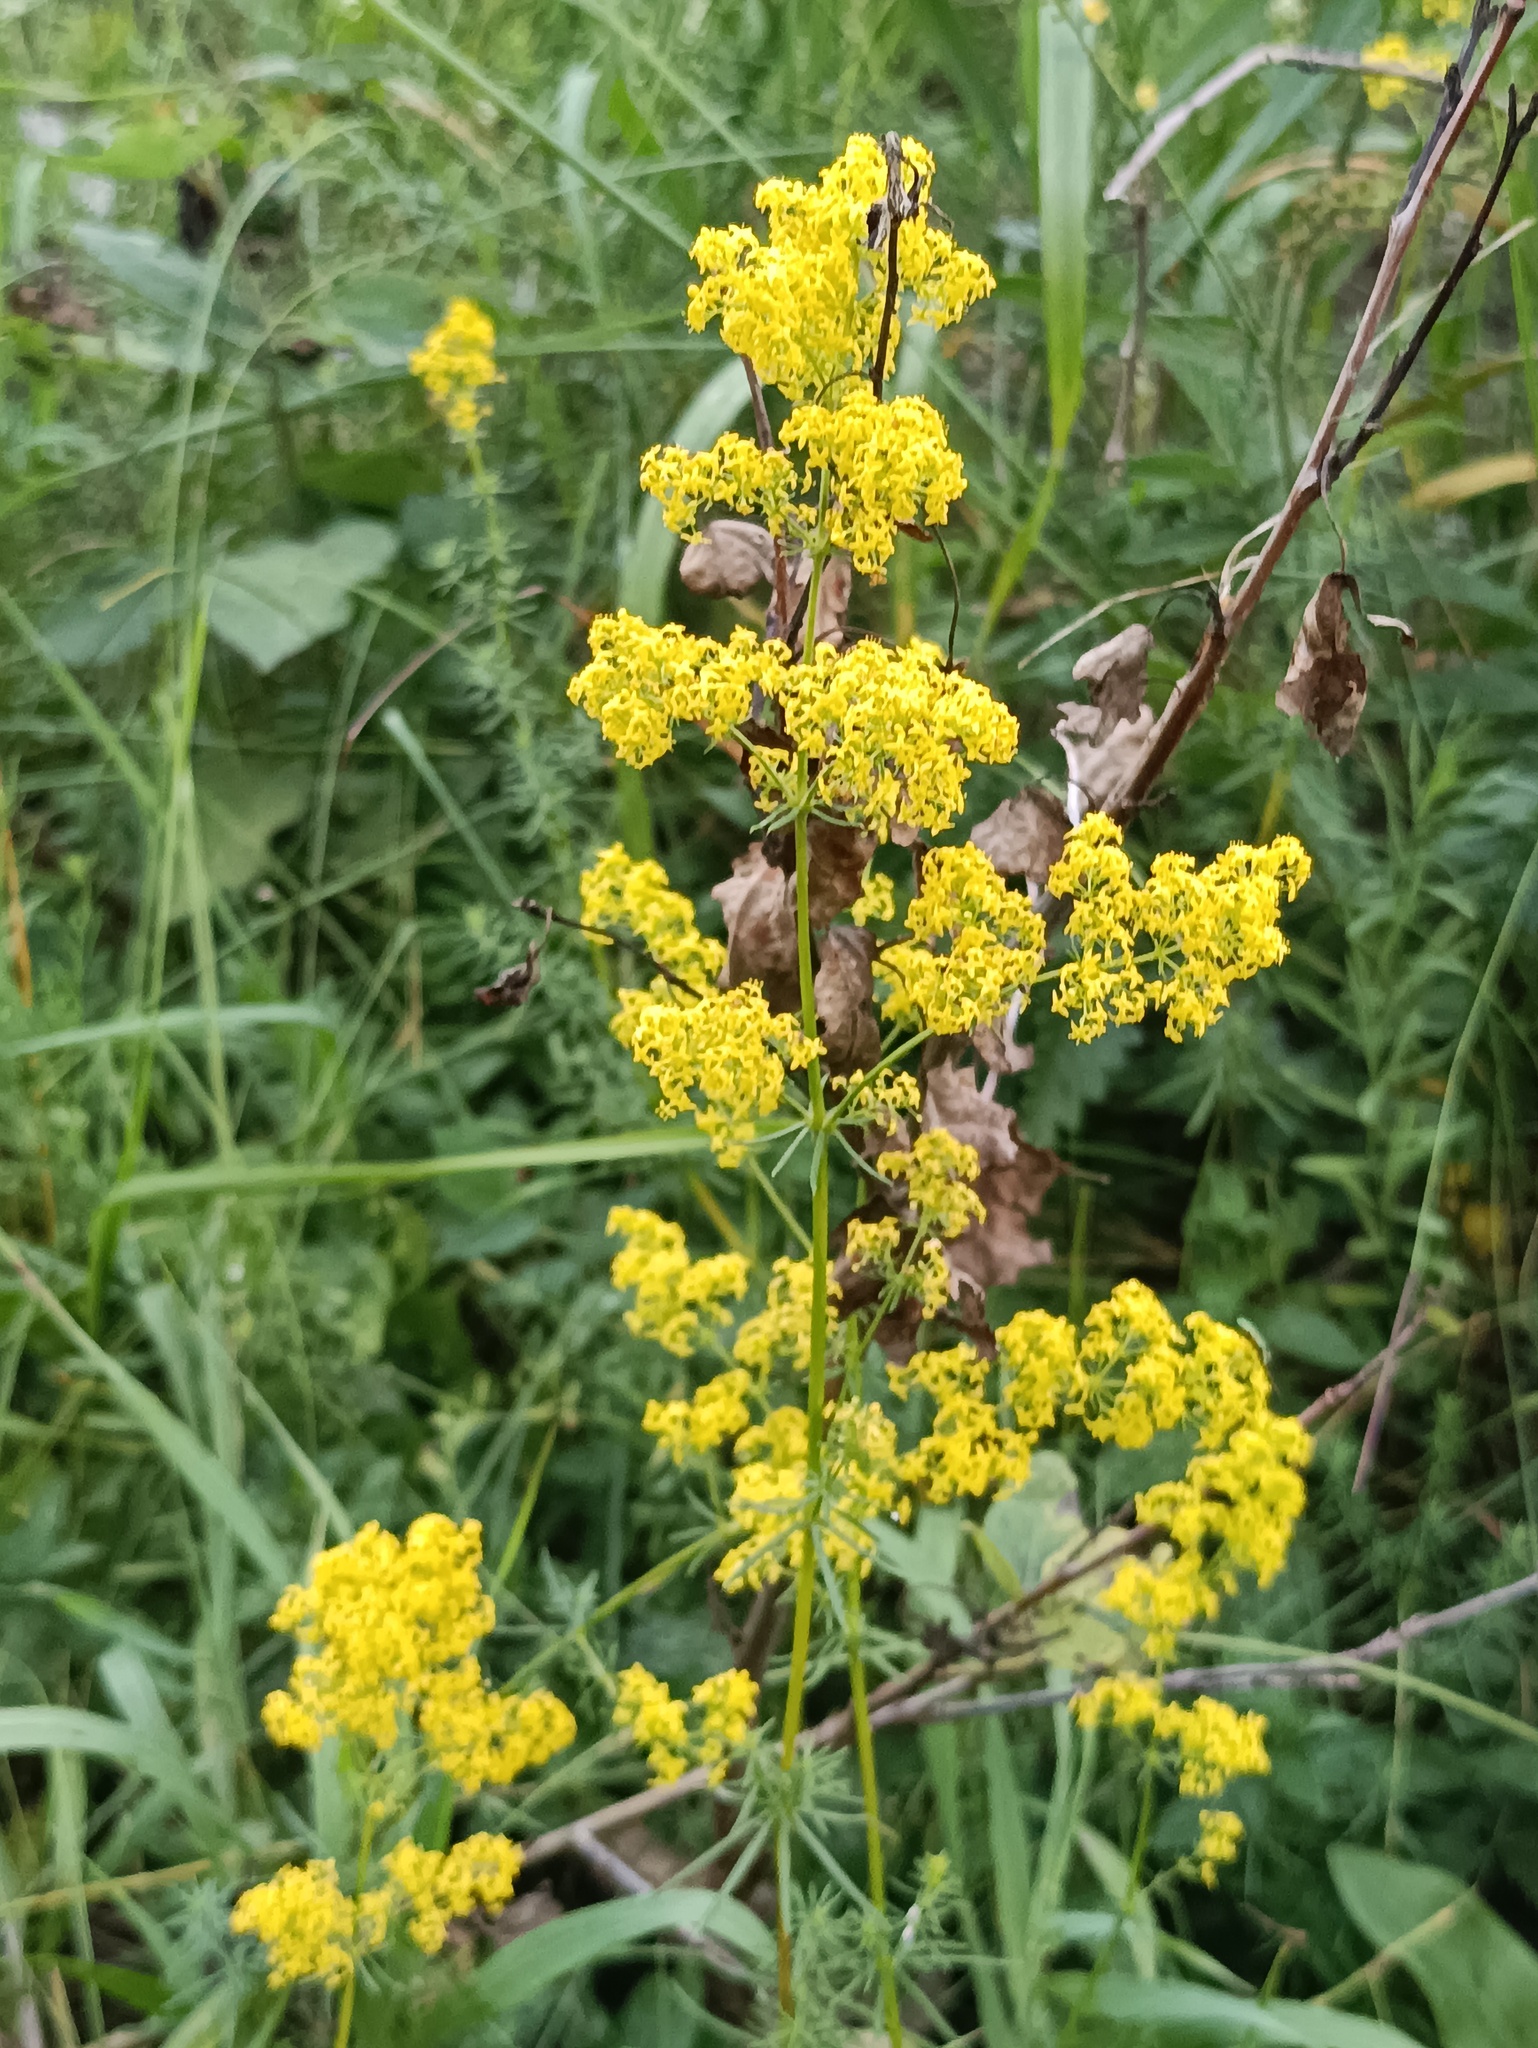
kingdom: Plantae
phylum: Tracheophyta
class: Magnoliopsida
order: Gentianales
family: Rubiaceae
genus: Galium
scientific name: Galium verum
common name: Lady's bedstraw
